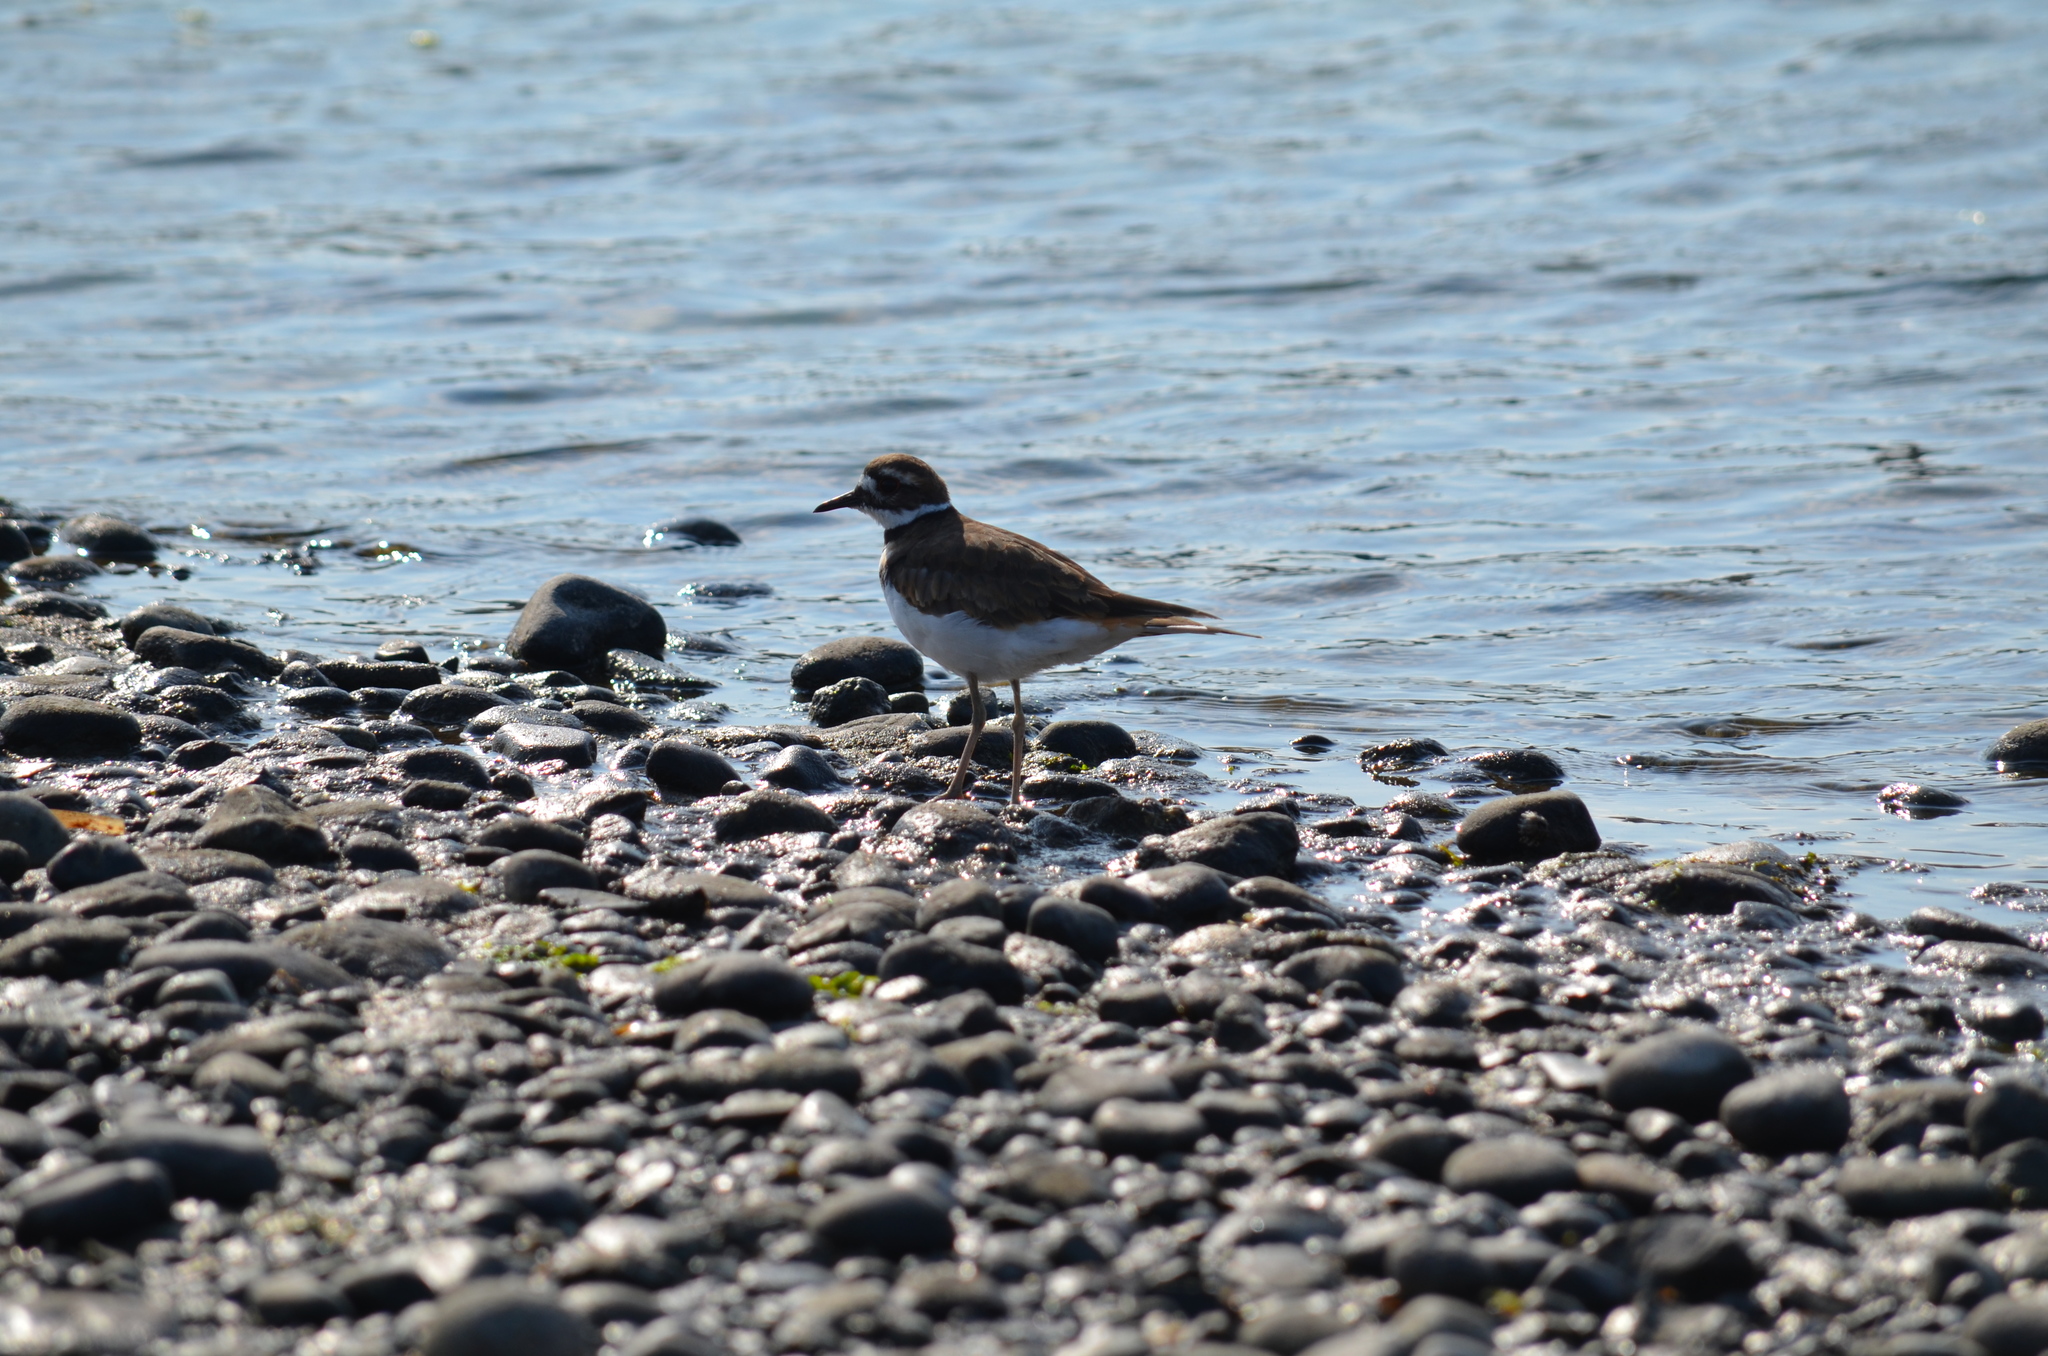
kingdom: Animalia
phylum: Chordata
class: Aves
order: Charadriiformes
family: Charadriidae
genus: Charadrius
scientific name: Charadrius vociferus
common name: Killdeer
